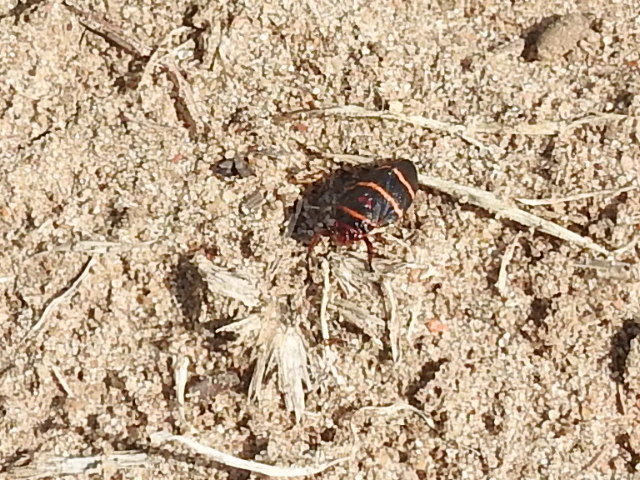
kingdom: Animalia
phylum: Arthropoda
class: Insecta
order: Hemiptera
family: Cercopidae
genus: Prosapia
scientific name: Prosapia bicincta
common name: Twolined spittlebug
